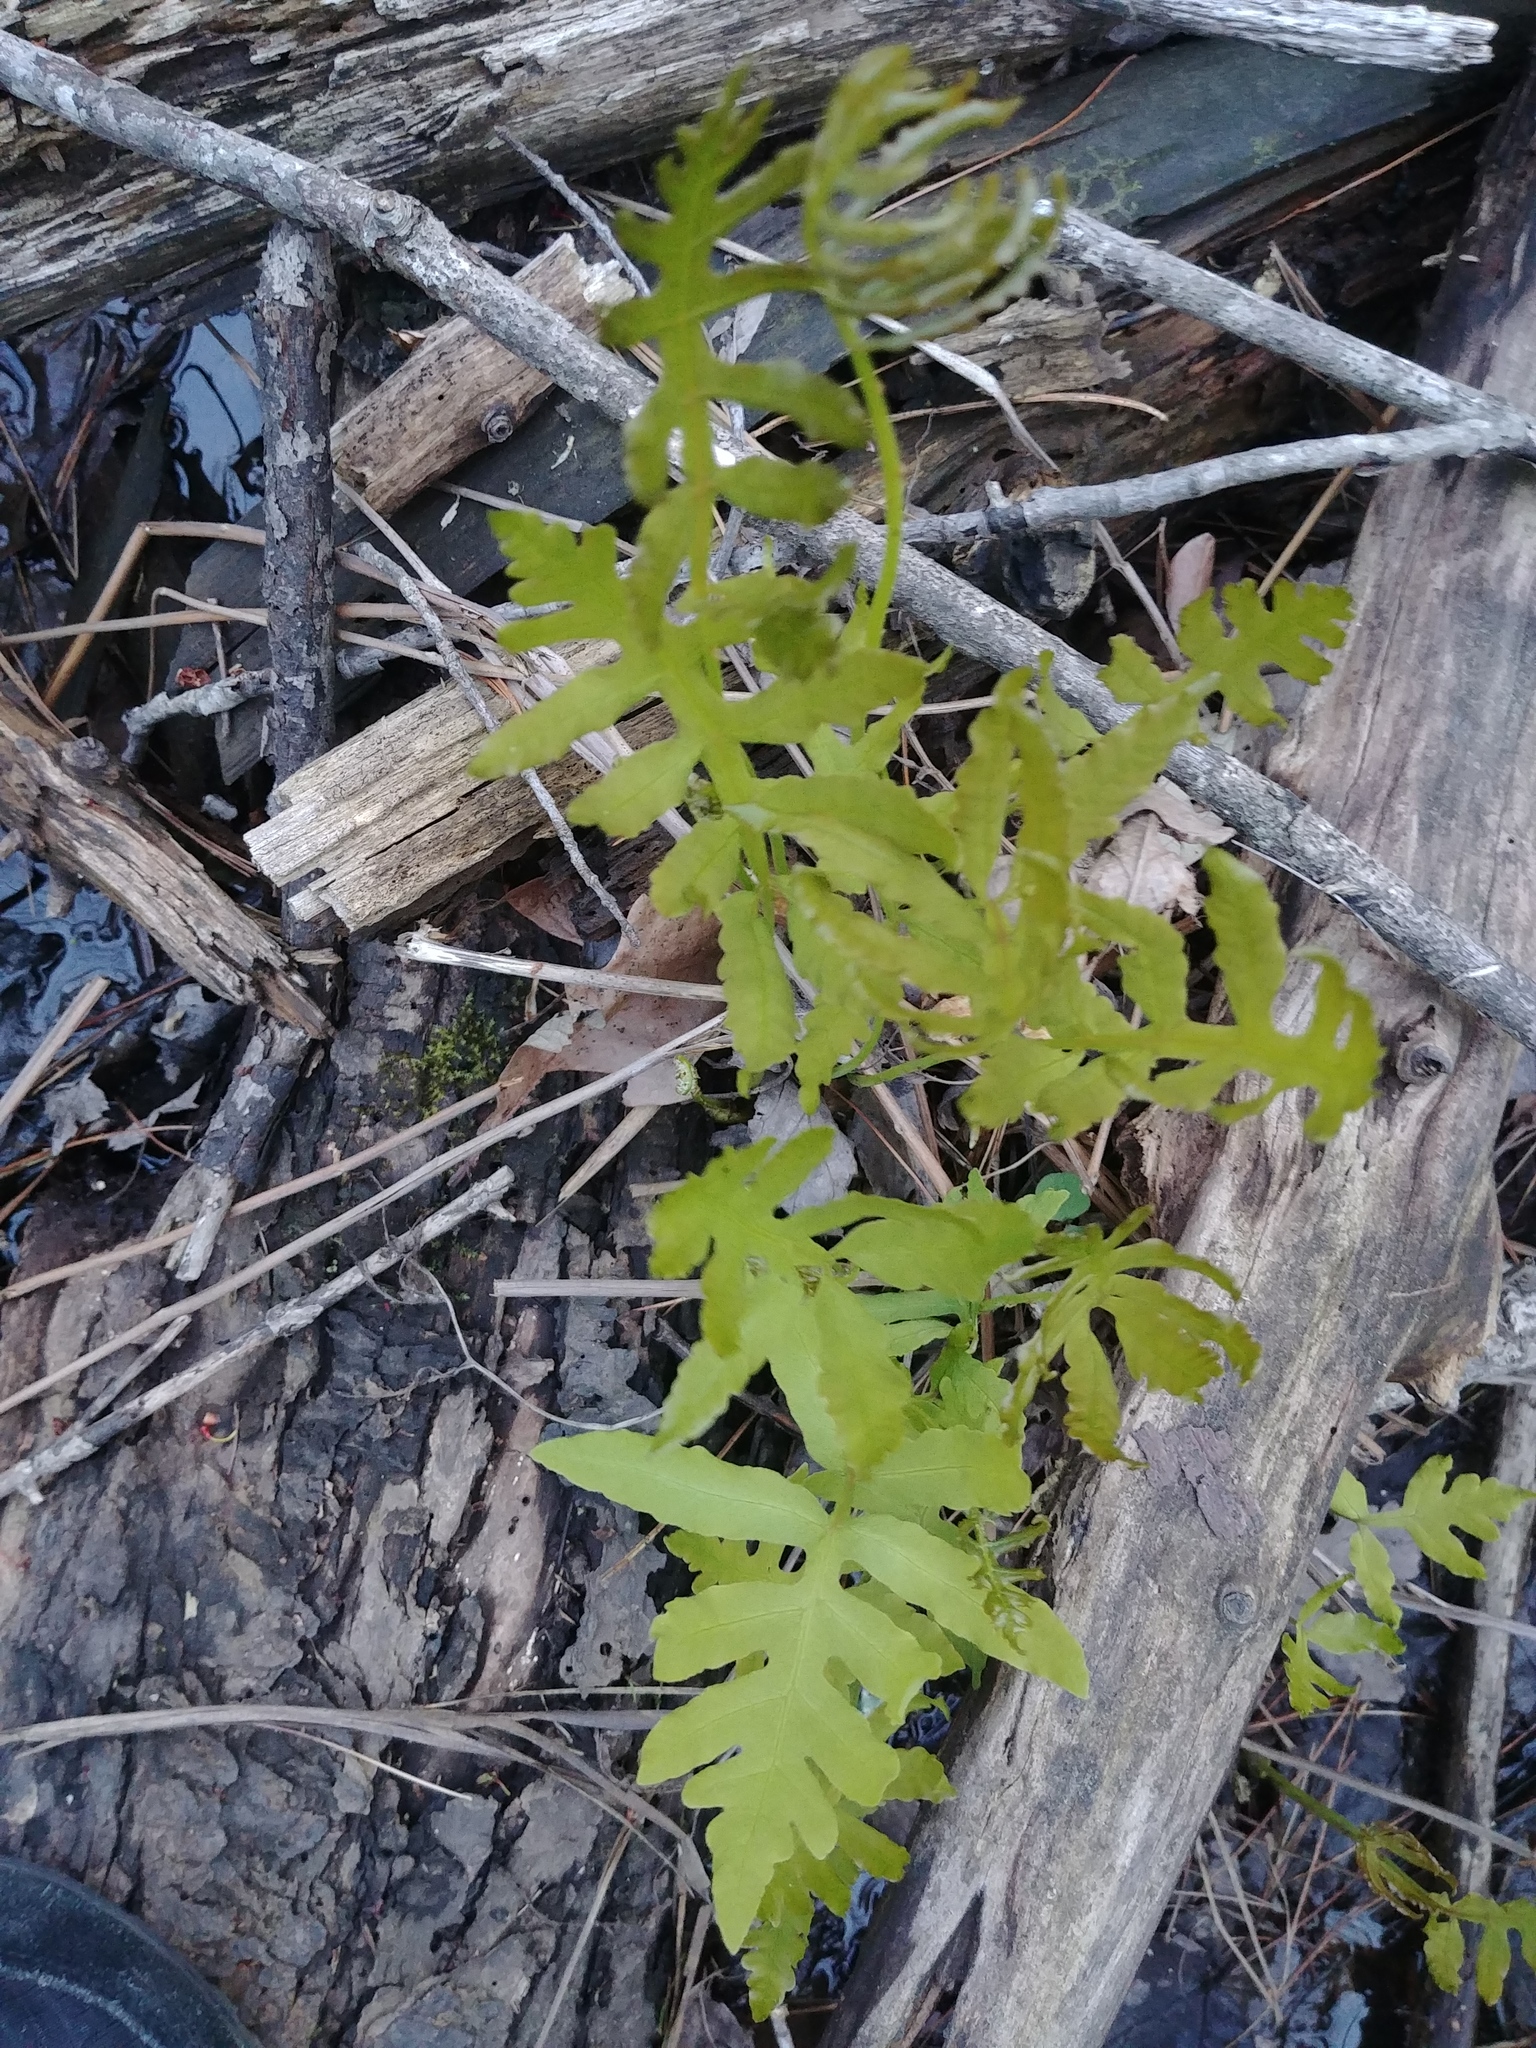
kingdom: Plantae
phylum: Tracheophyta
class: Polypodiopsida
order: Polypodiales
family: Onocleaceae
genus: Onoclea
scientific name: Onoclea sensibilis
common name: Sensitive fern
